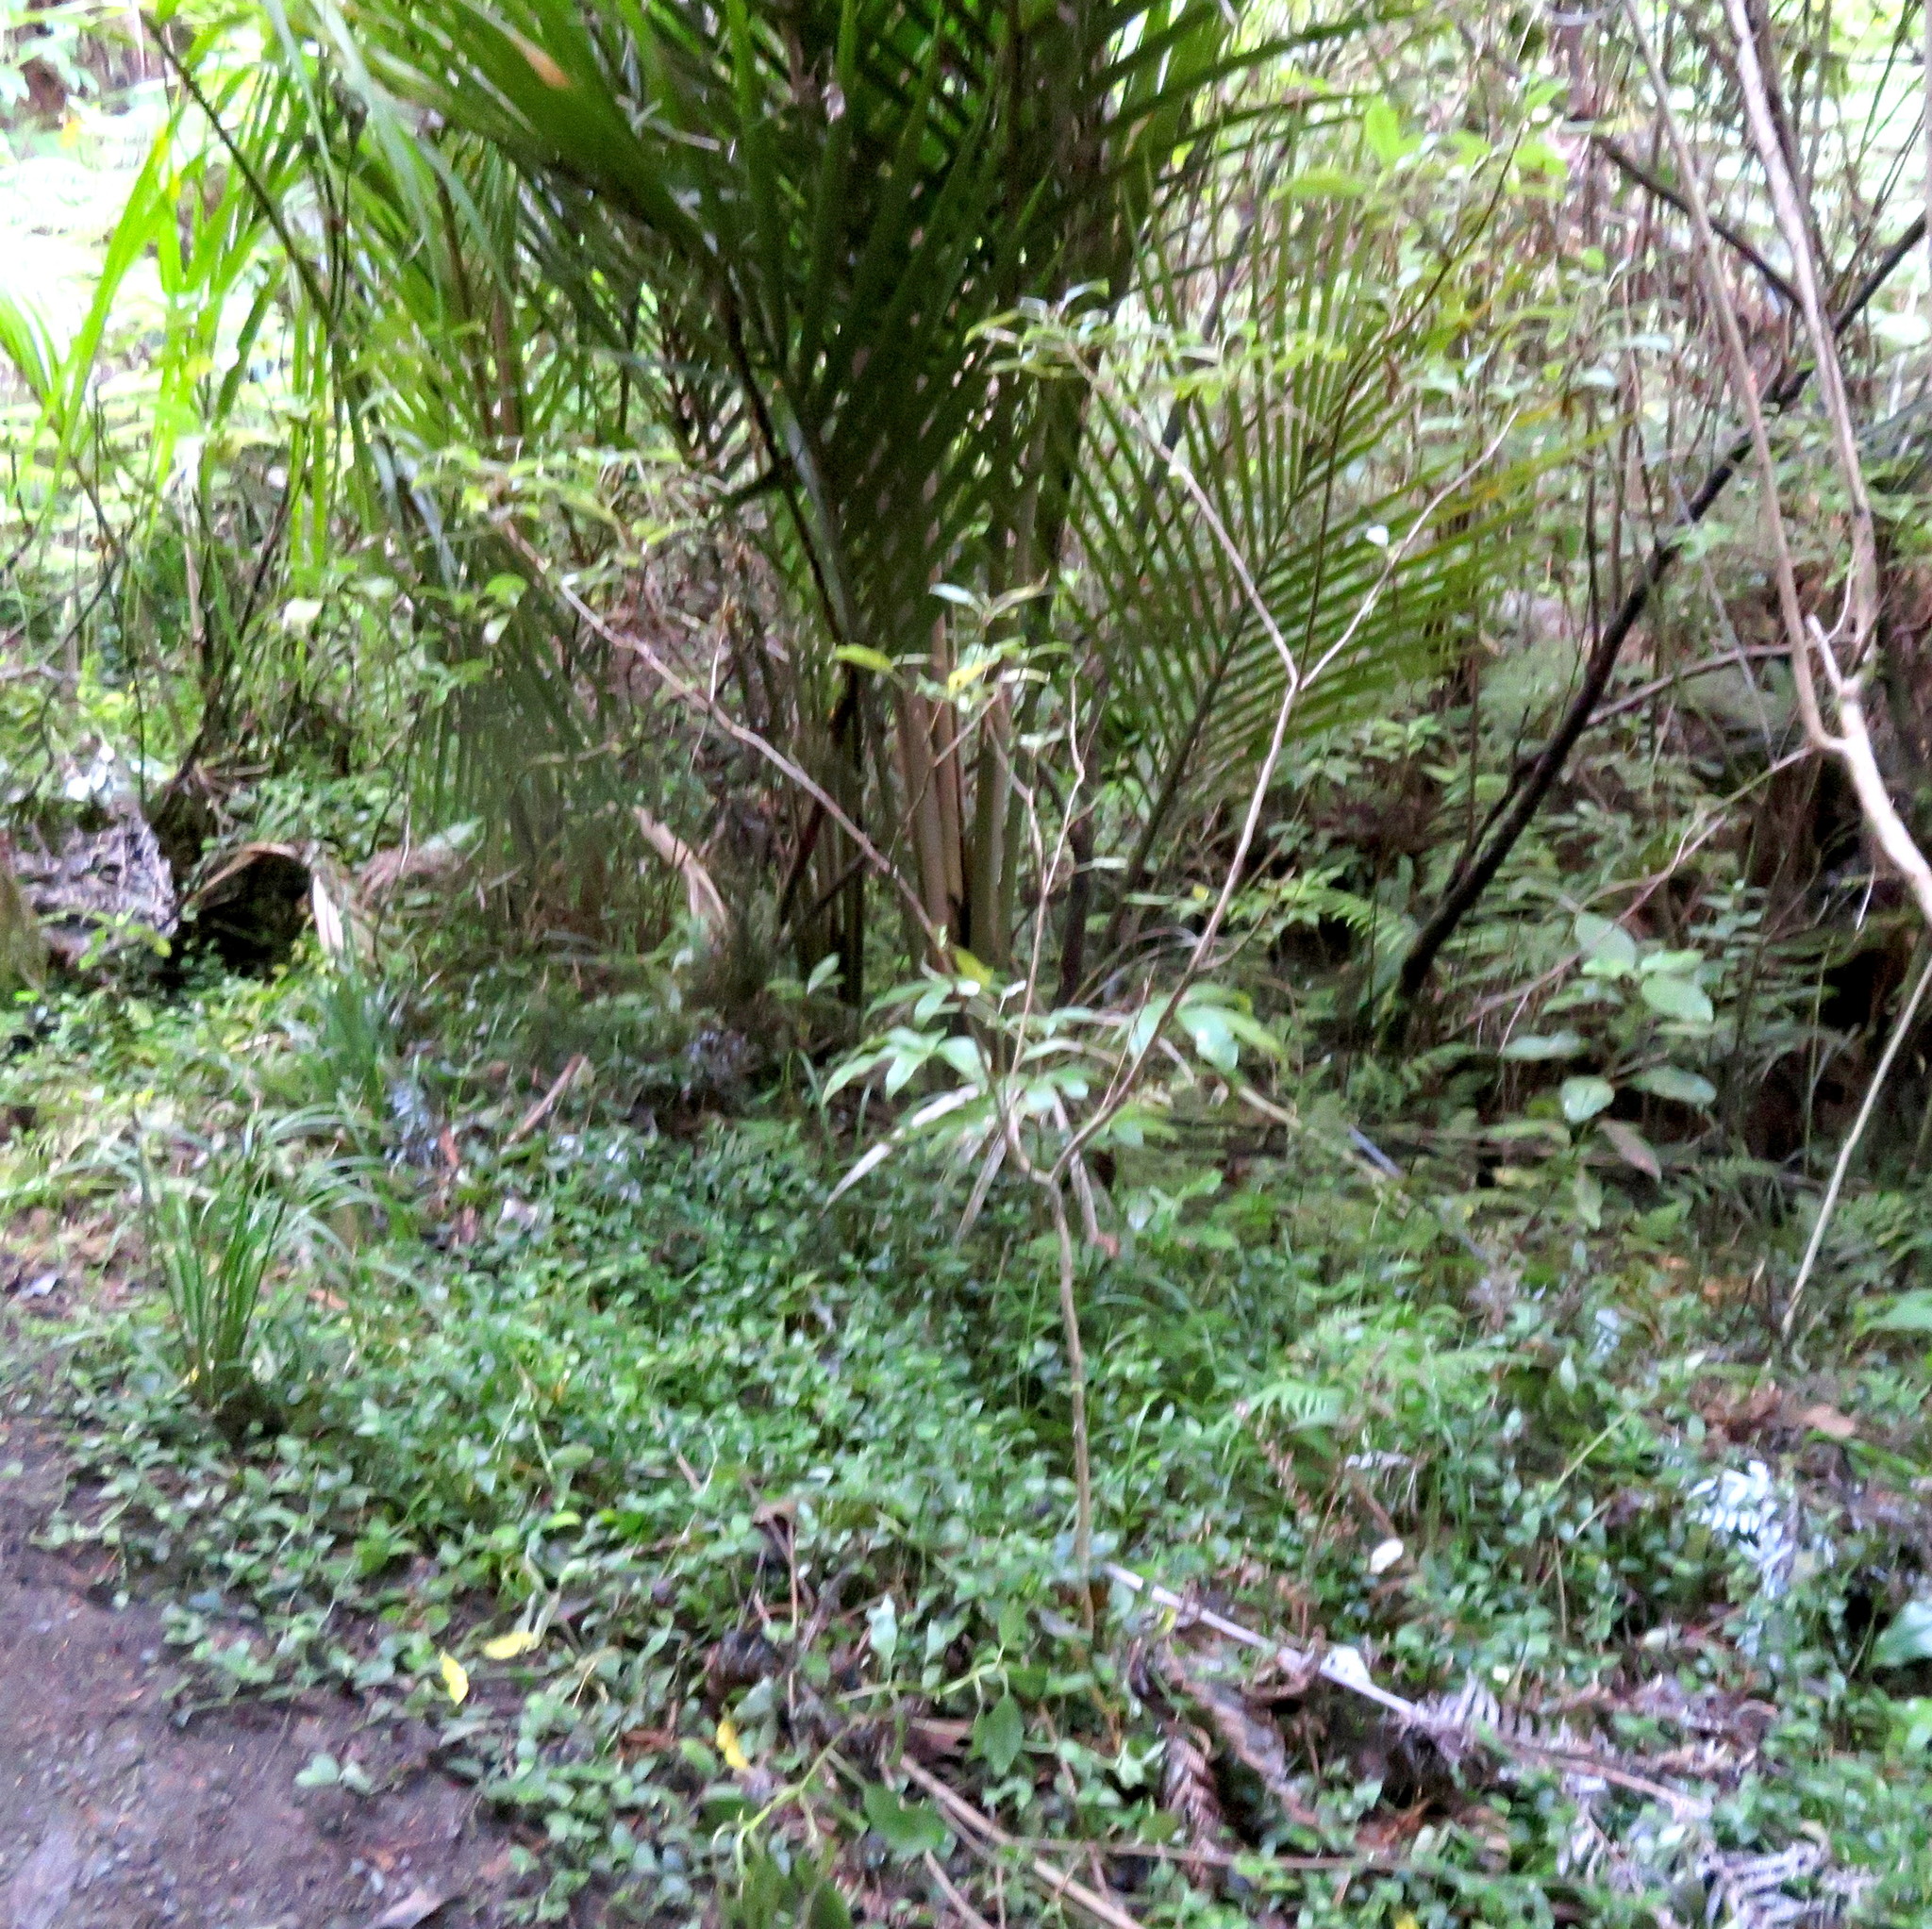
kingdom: Plantae
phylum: Tracheophyta
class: Magnoliopsida
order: Myrtales
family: Onagraceae
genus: Fuchsia
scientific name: Fuchsia excorticata
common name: Tree fuchsia
